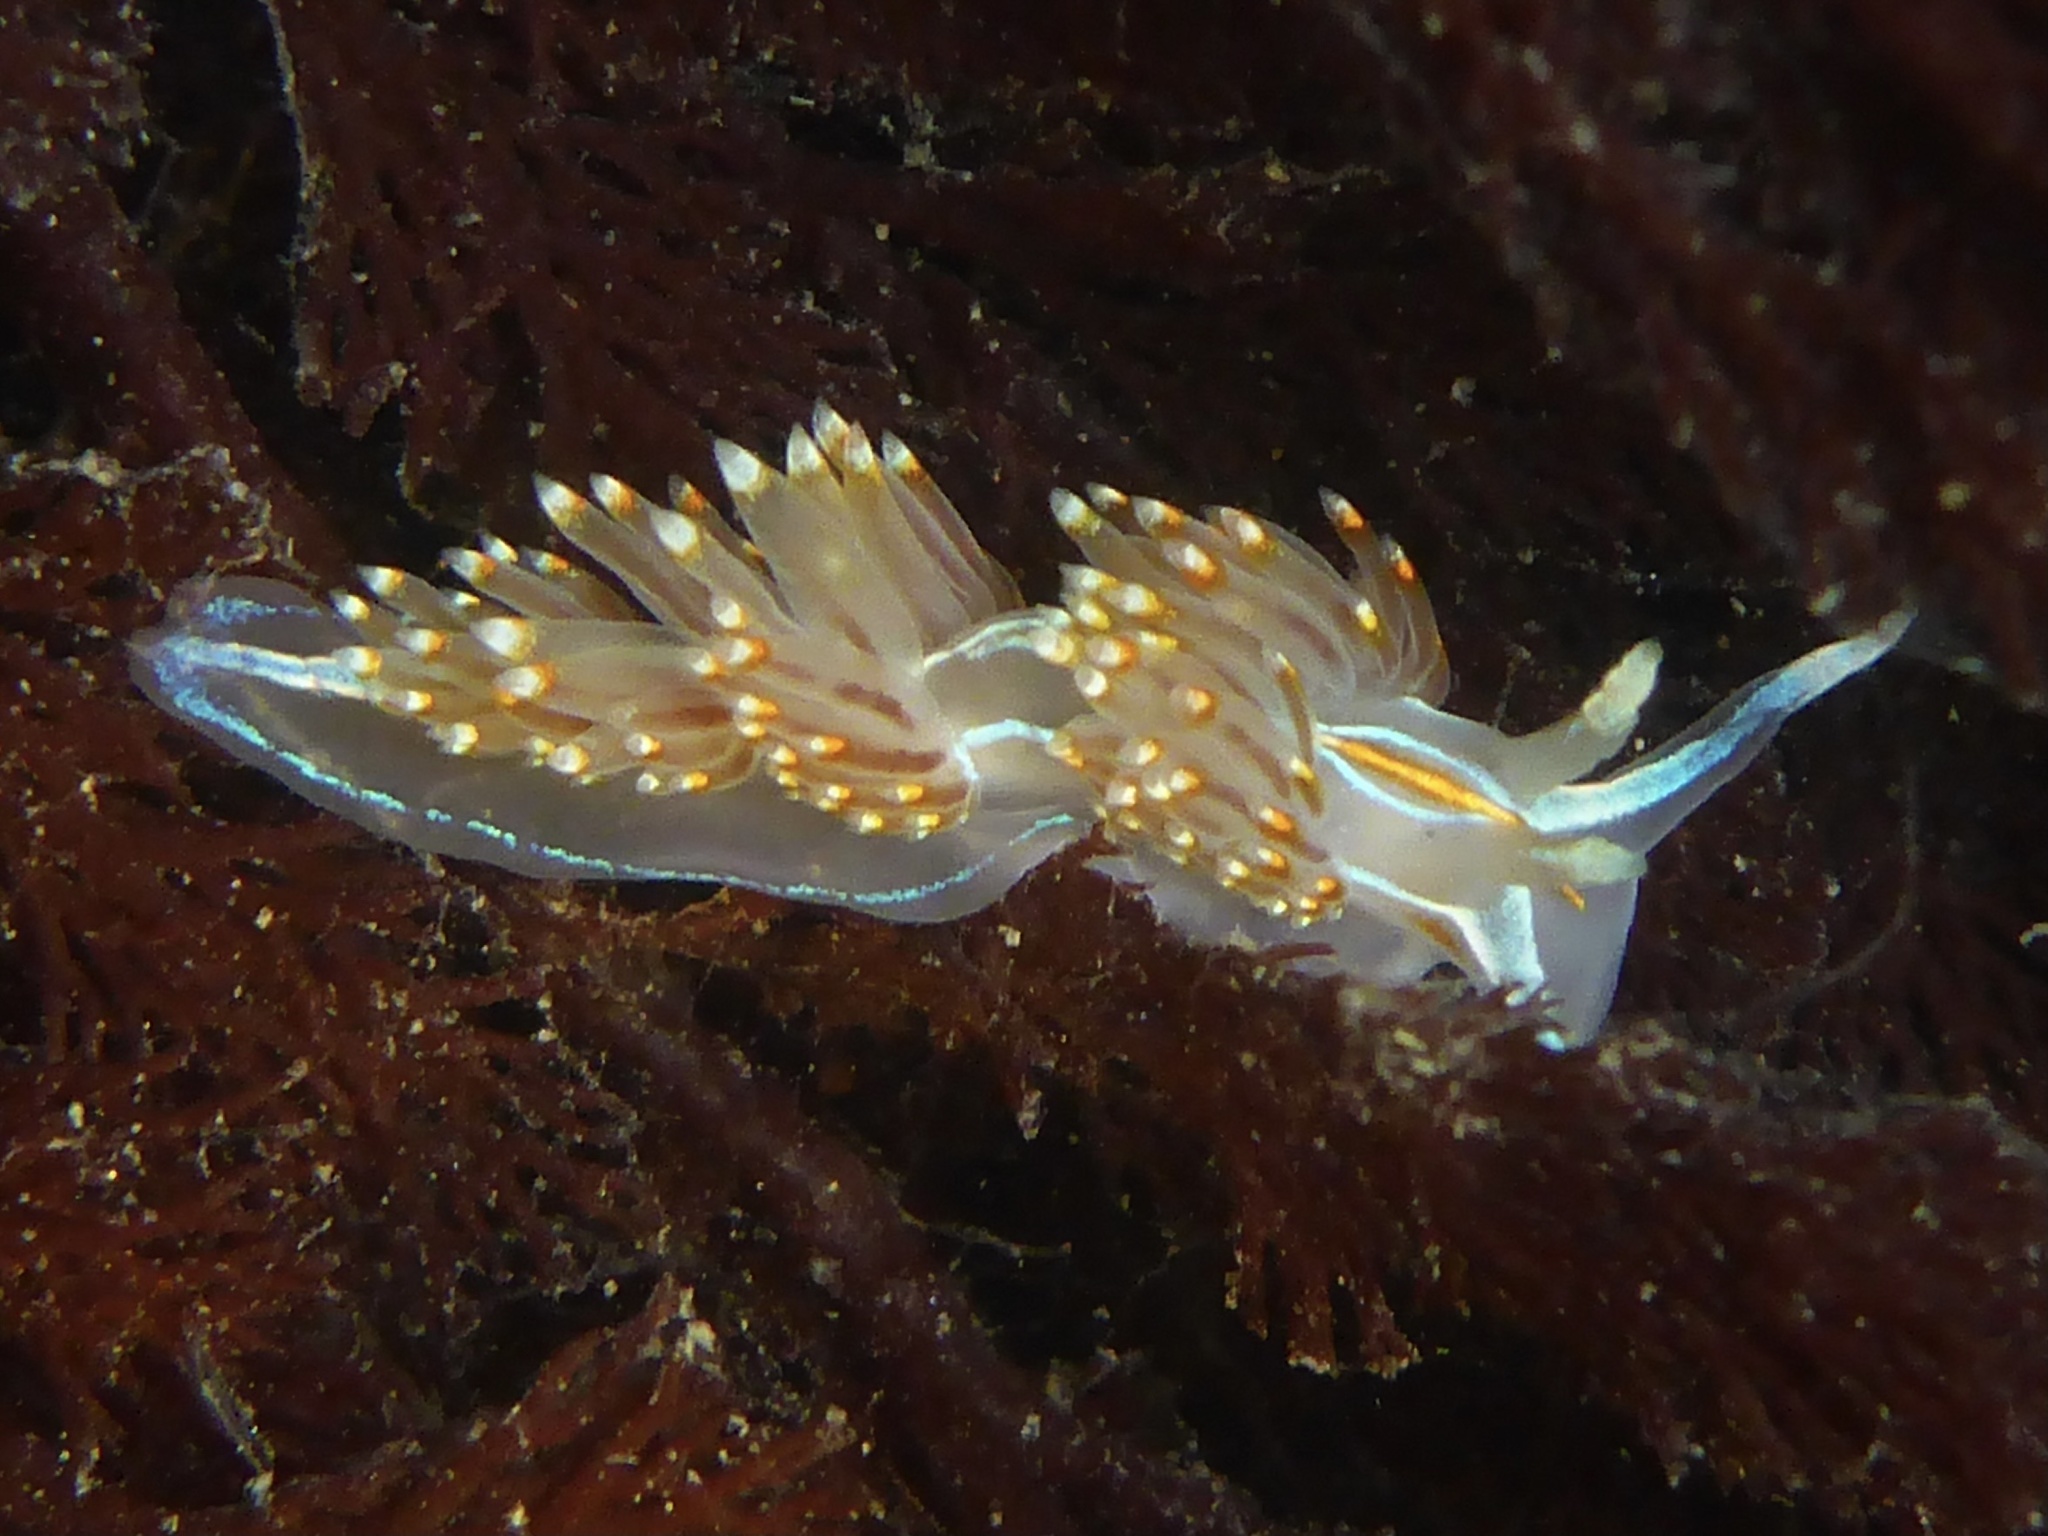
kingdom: Animalia
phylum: Mollusca
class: Gastropoda
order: Nudibranchia
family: Myrrhinidae
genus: Hermissenda
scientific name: Hermissenda opalescens
